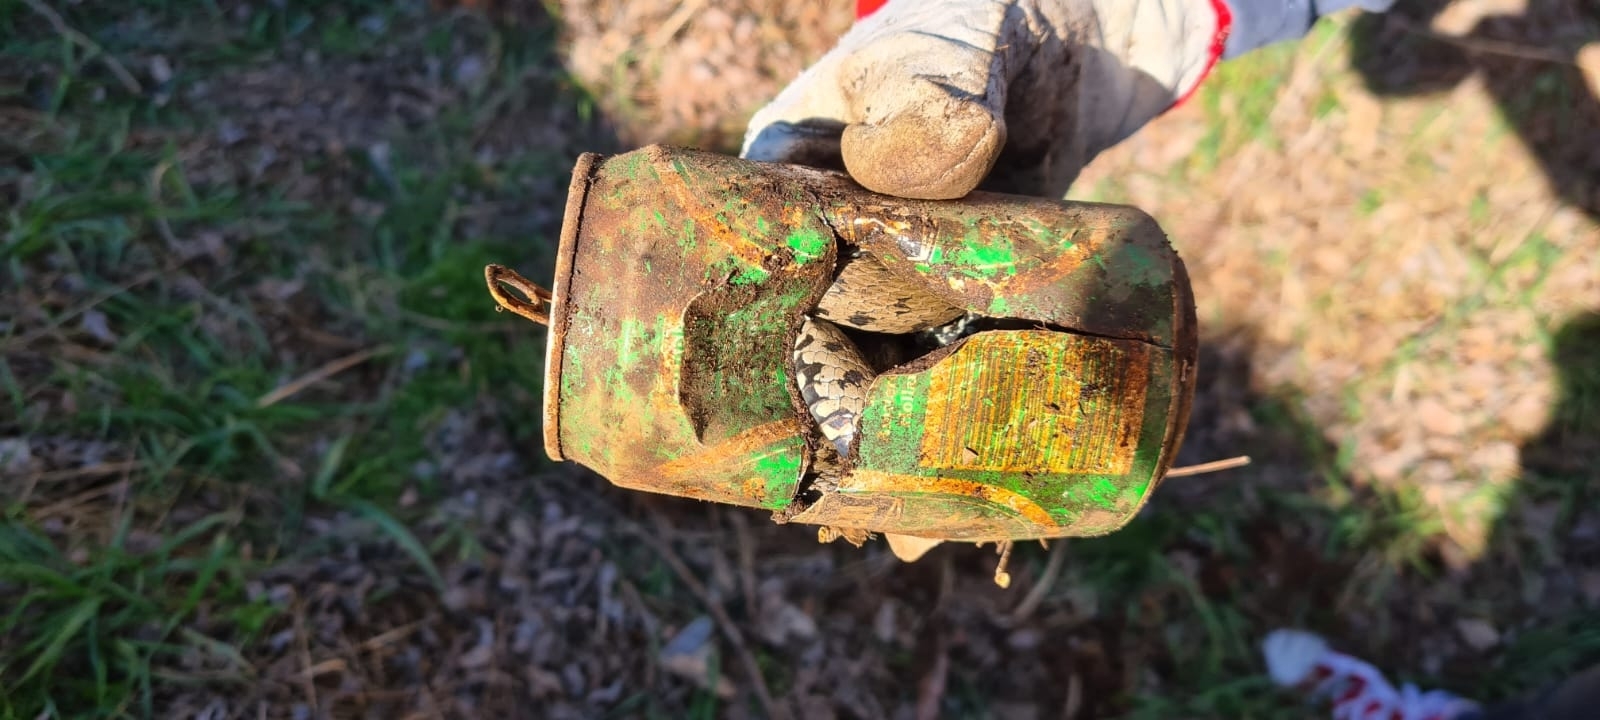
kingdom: Animalia
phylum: Chordata
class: Squamata
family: Colubridae
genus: Natrix
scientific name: Natrix helvetica
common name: Banded grass snake
